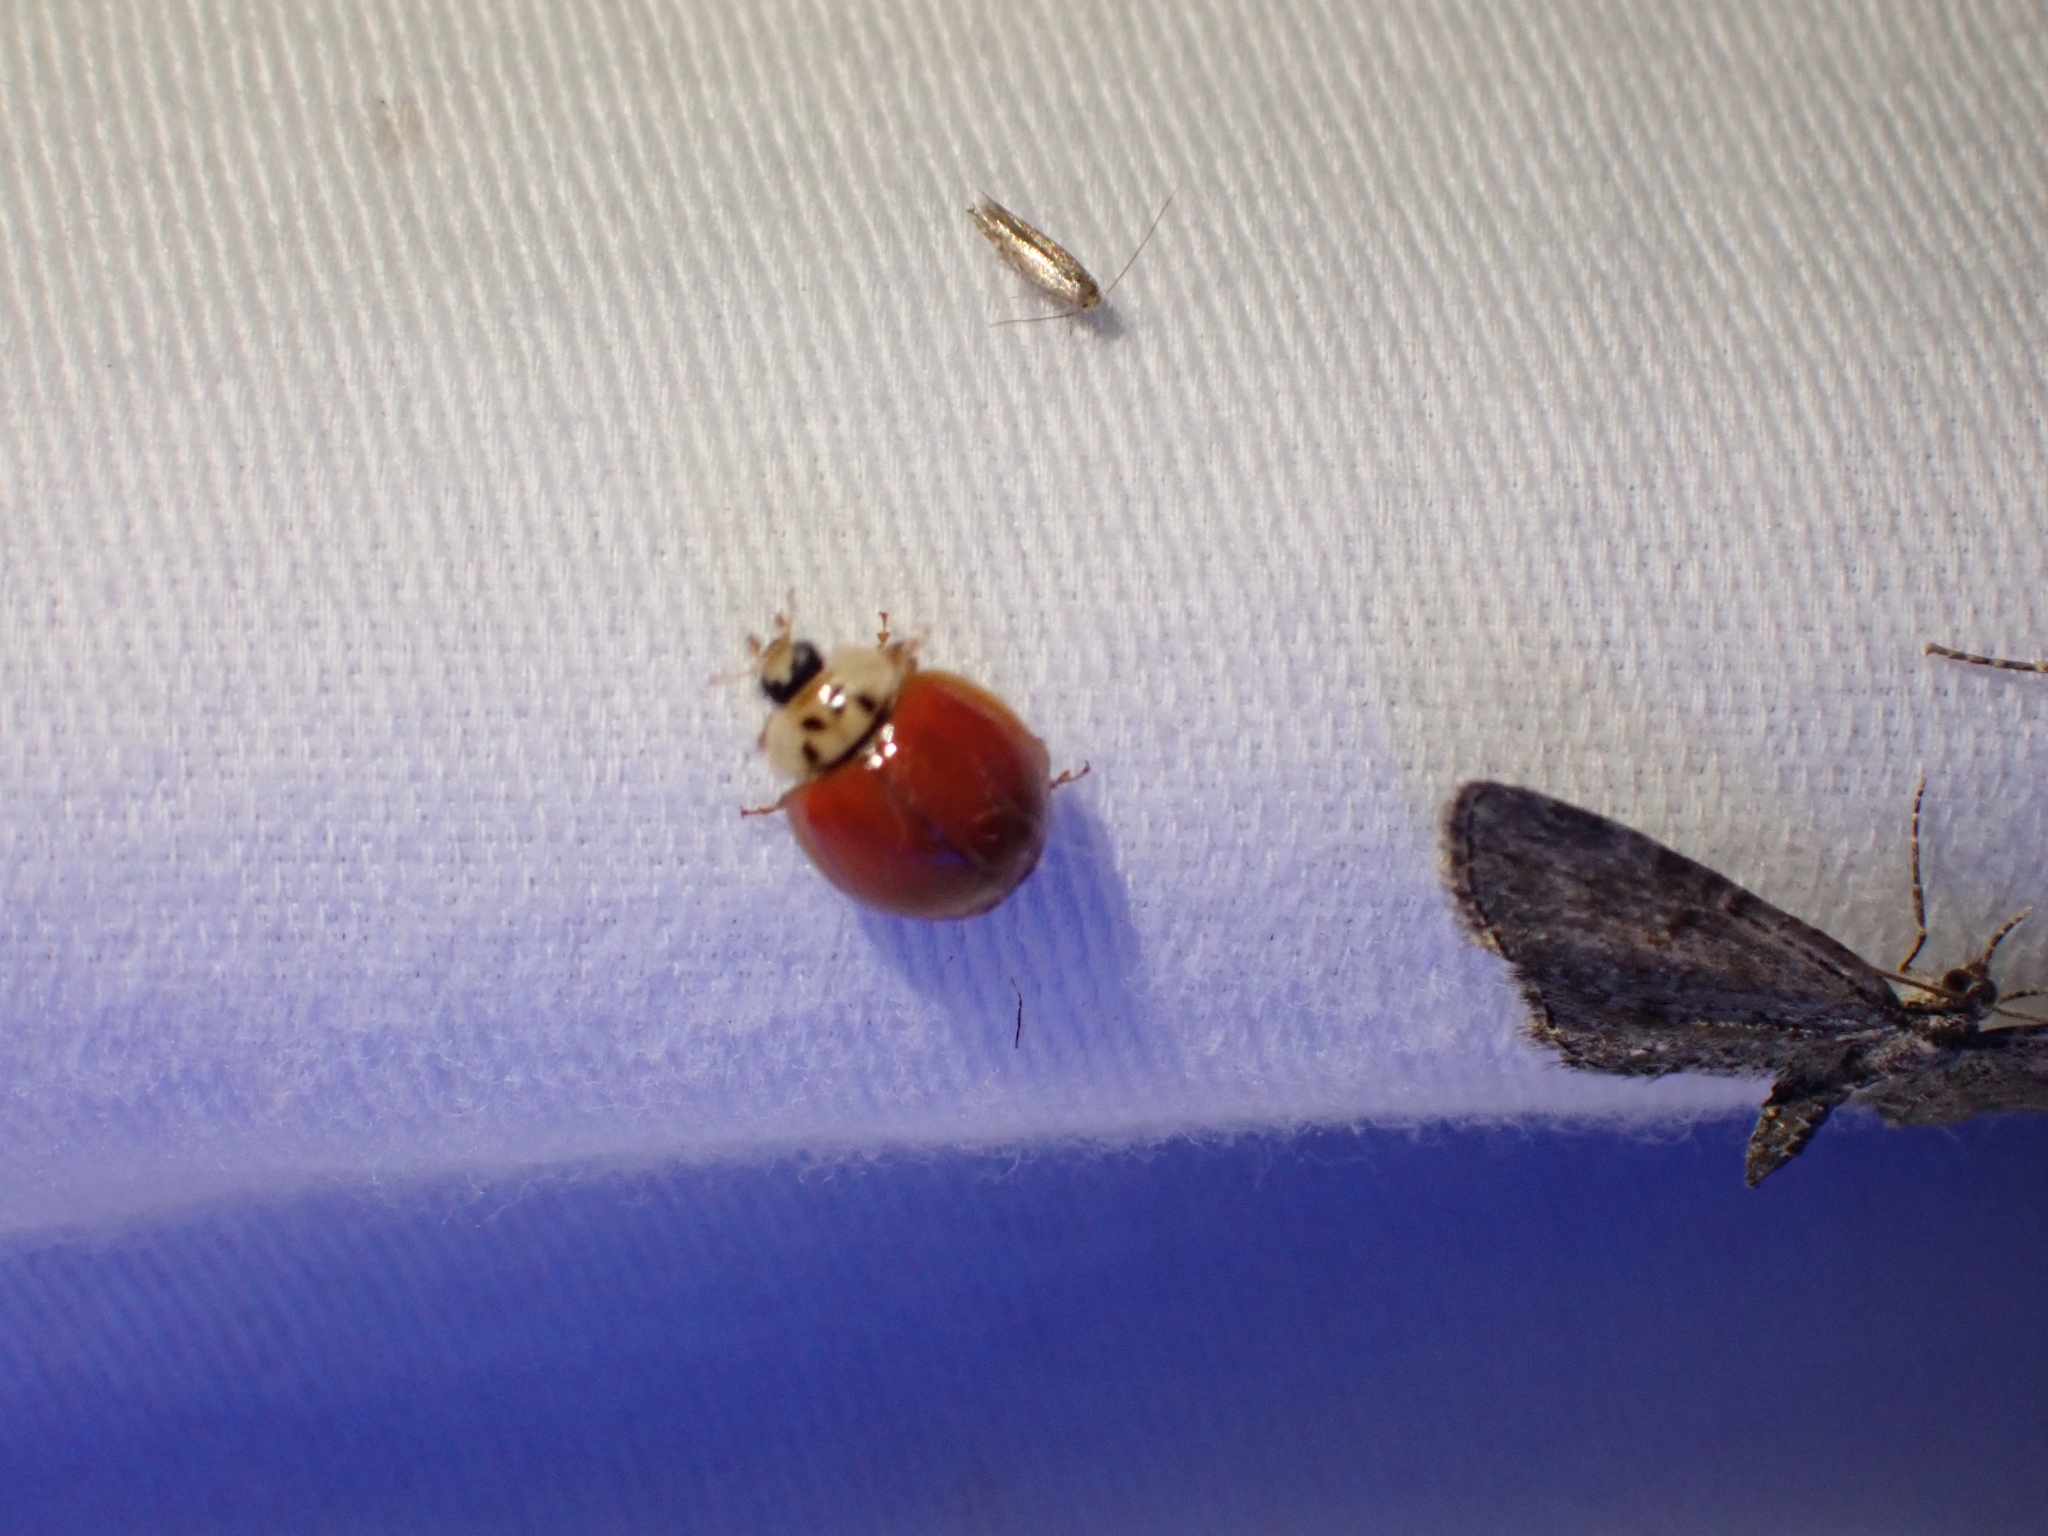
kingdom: Animalia
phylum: Arthropoda
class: Insecta
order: Coleoptera
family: Coccinellidae
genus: Harmonia
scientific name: Harmonia axyridis
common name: Harlequin ladybird
